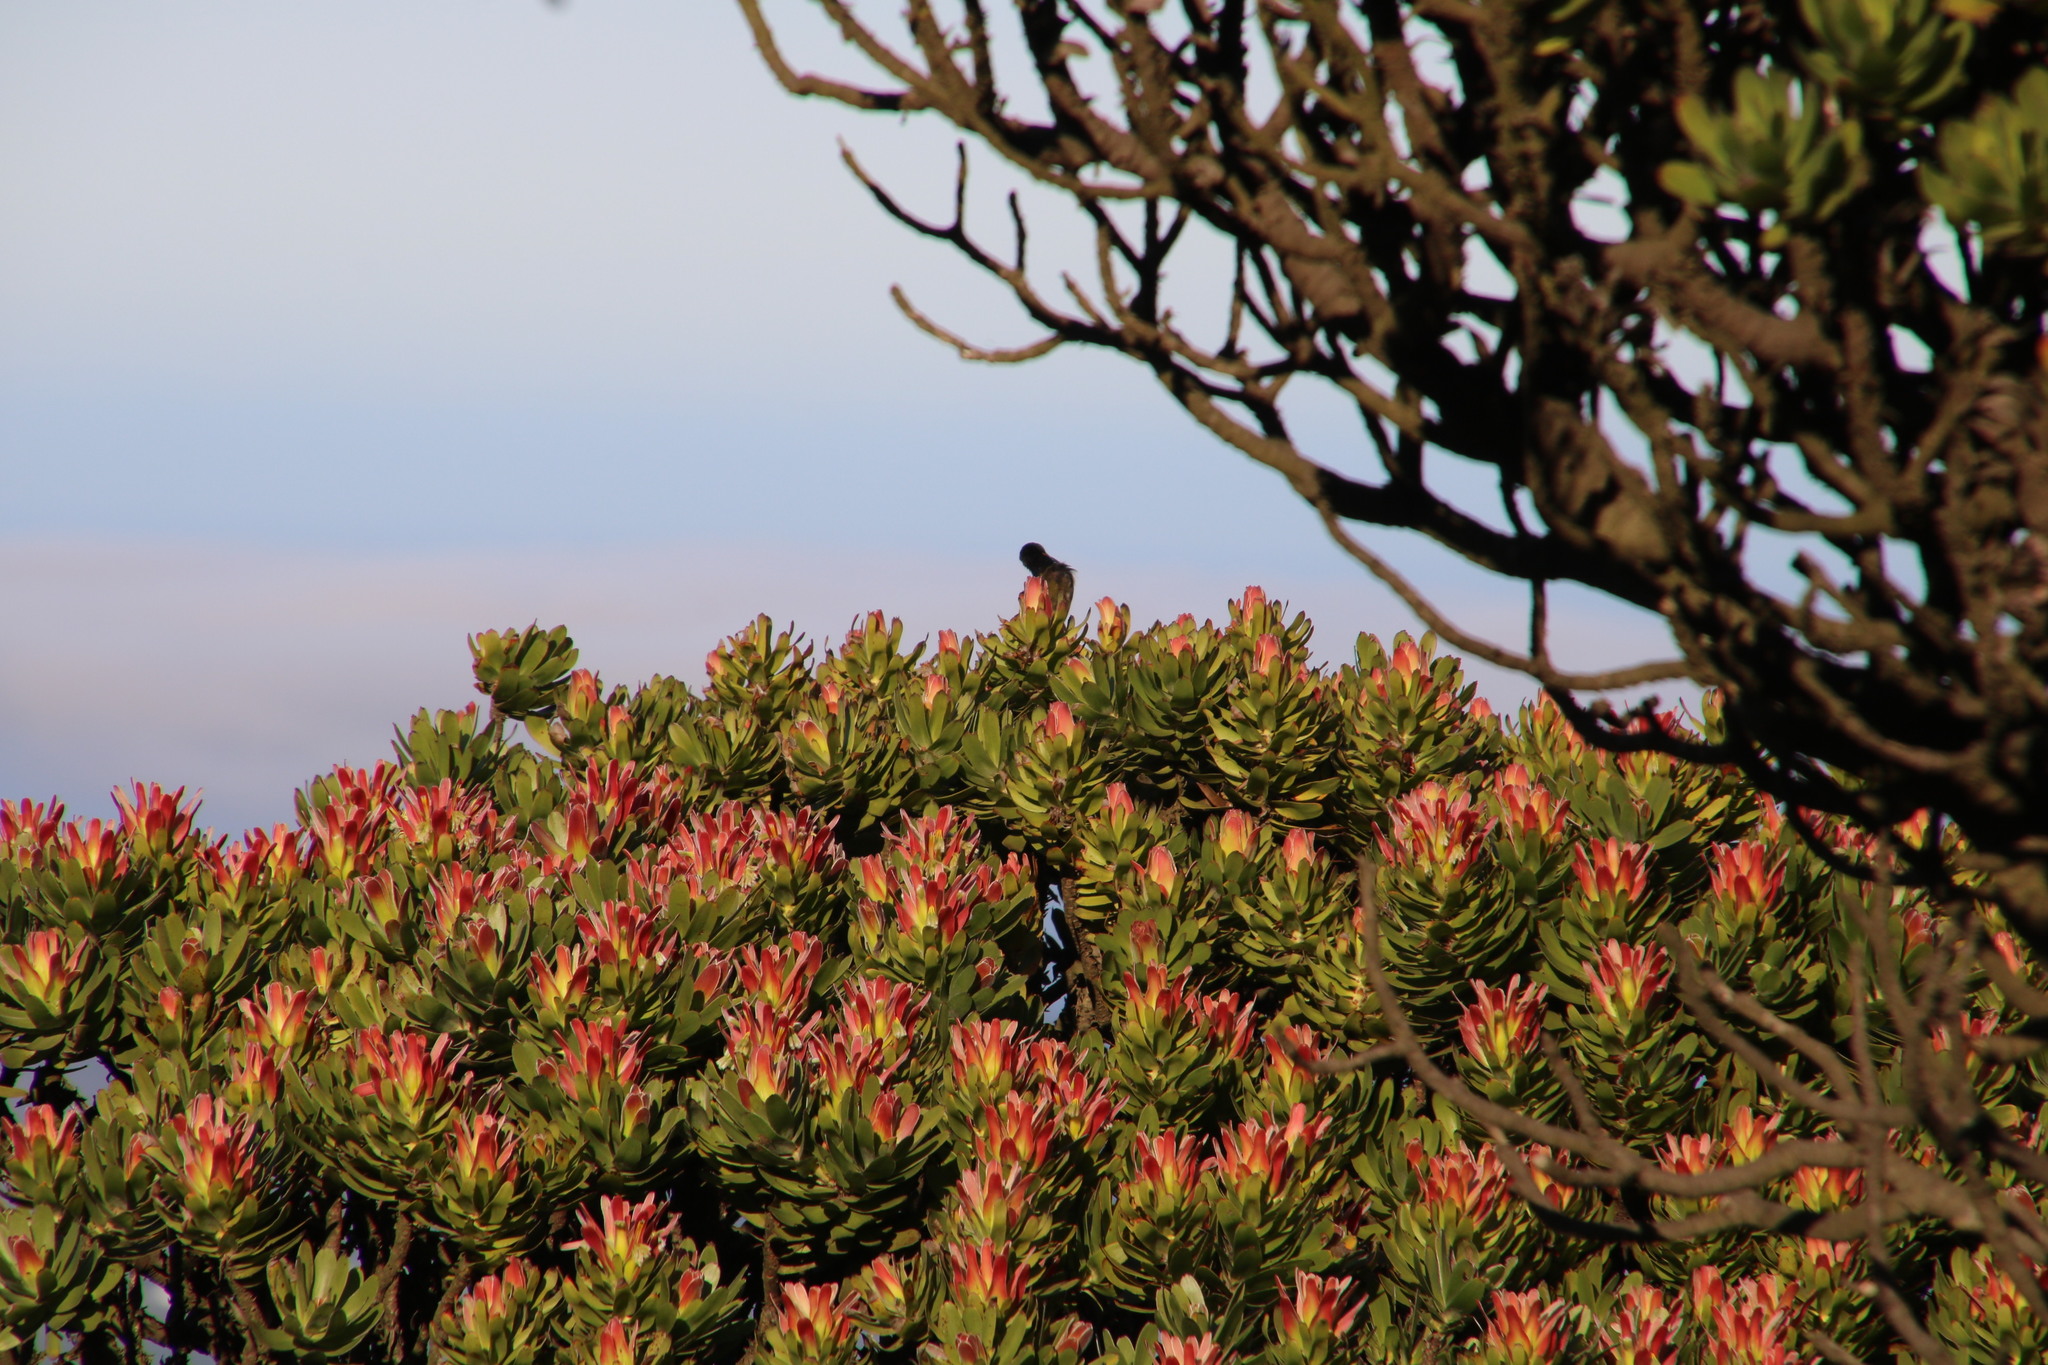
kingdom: Plantae
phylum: Tracheophyta
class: Magnoliopsida
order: Proteales
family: Proteaceae
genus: Mimetes
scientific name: Mimetes fimbriifolius
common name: Fringed bottlebrush
